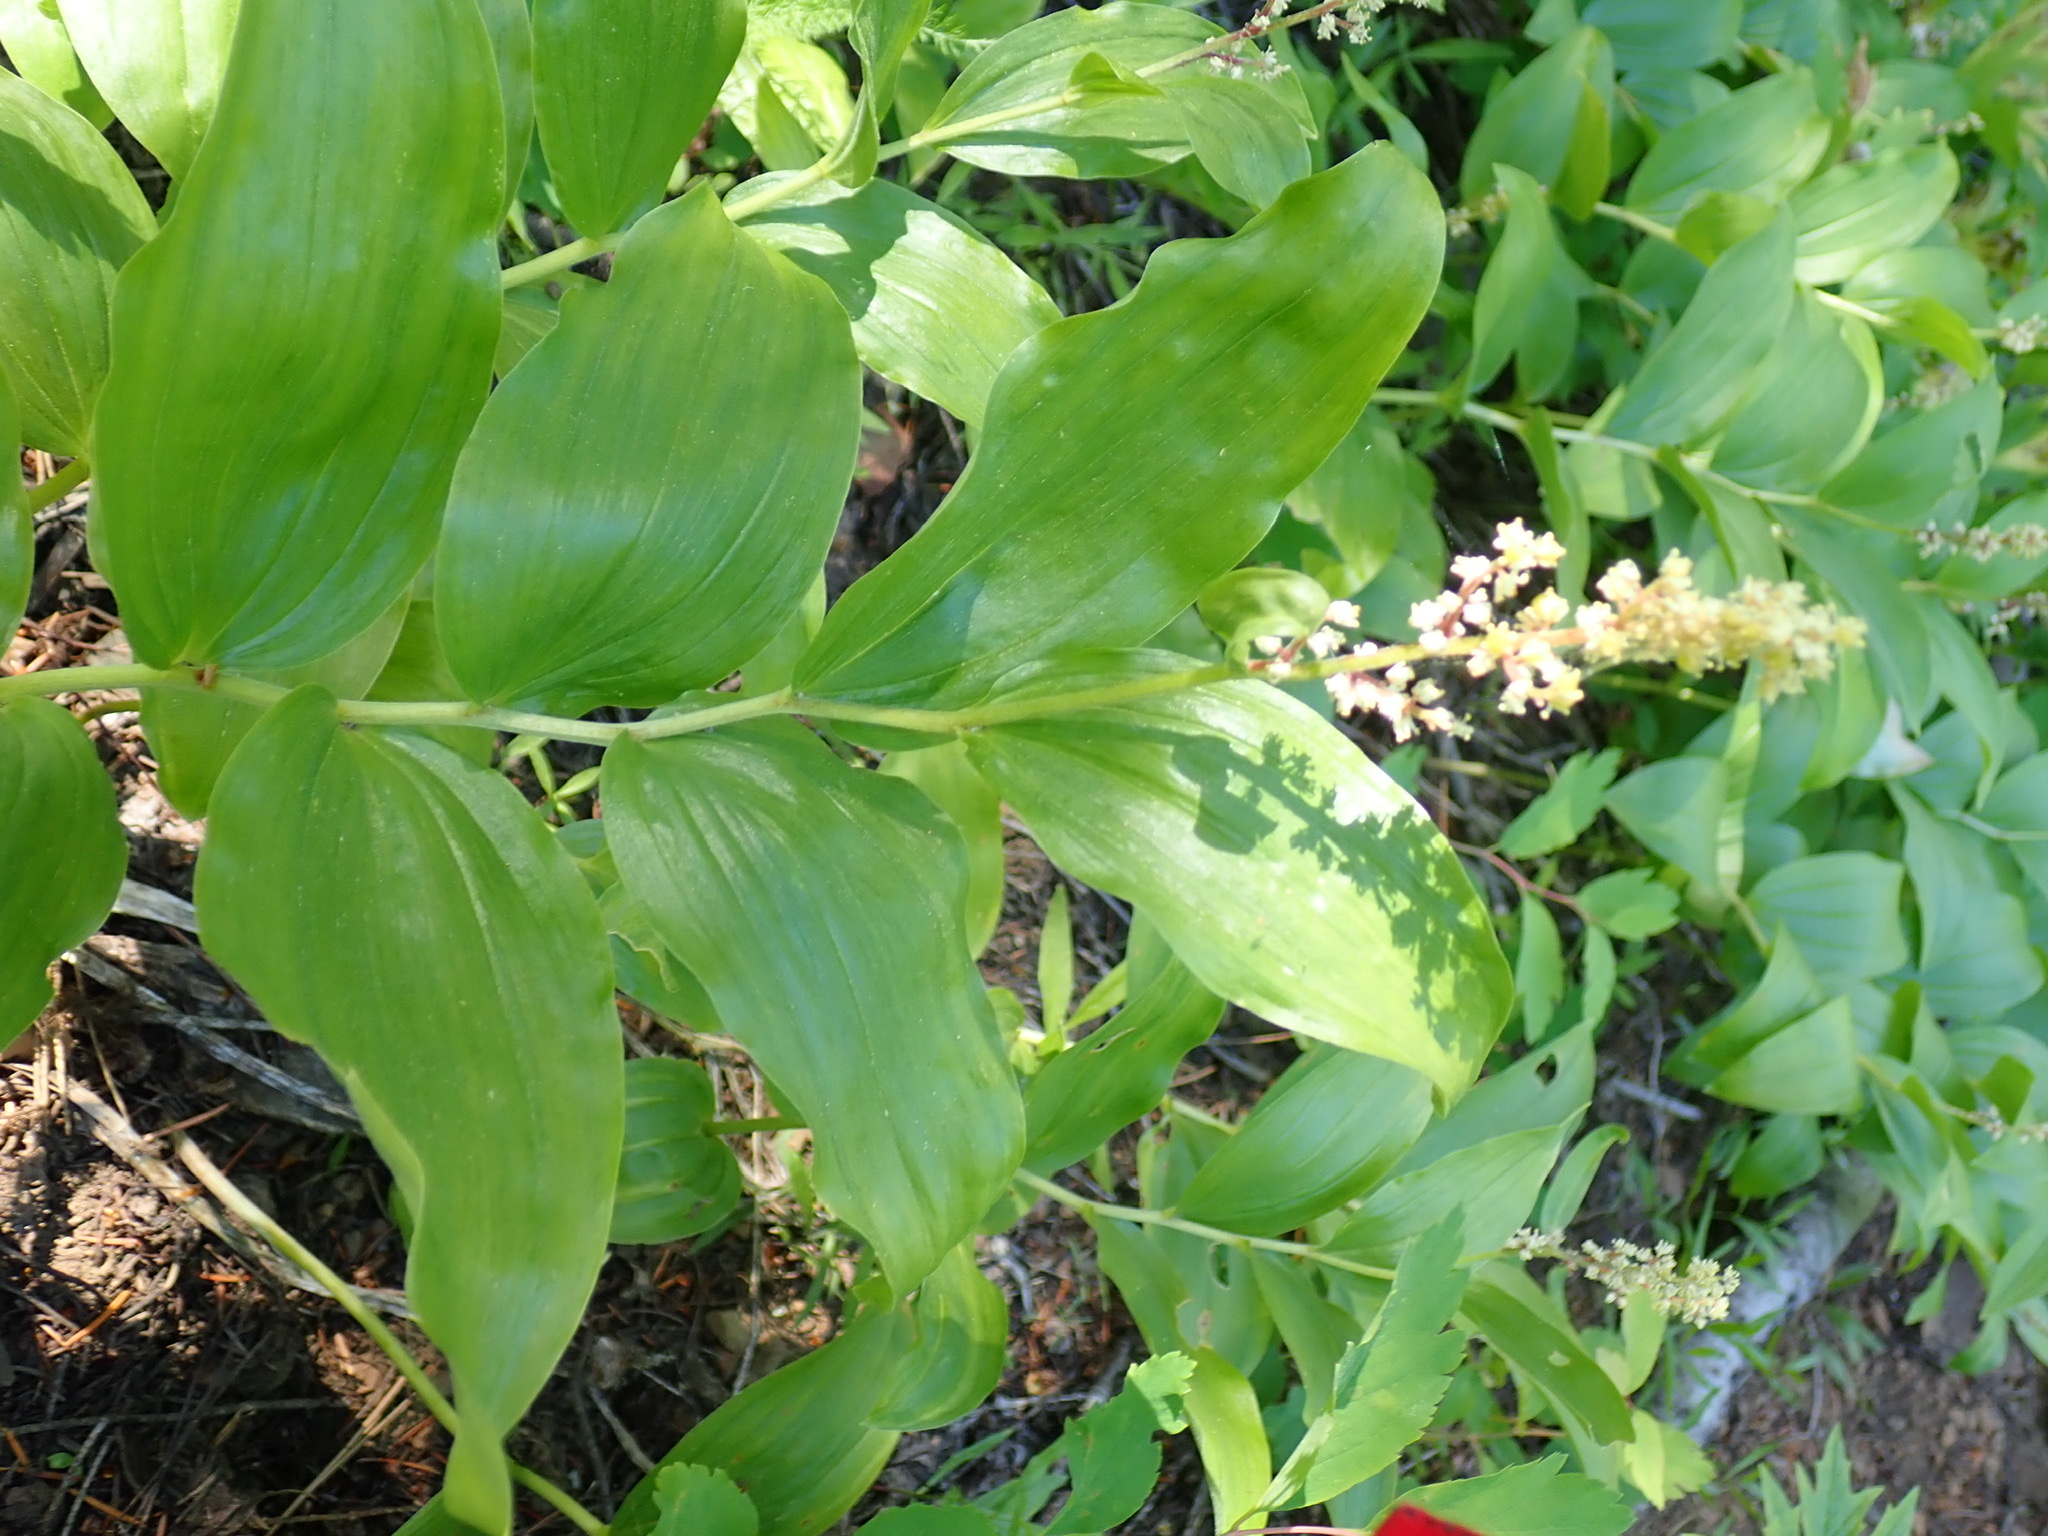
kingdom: Plantae
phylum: Tracheophyta
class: Liliopsida
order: Asparagales
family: Asparagaceae
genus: Maianthemum
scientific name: Maianthemum racemosum
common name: False spikenard
